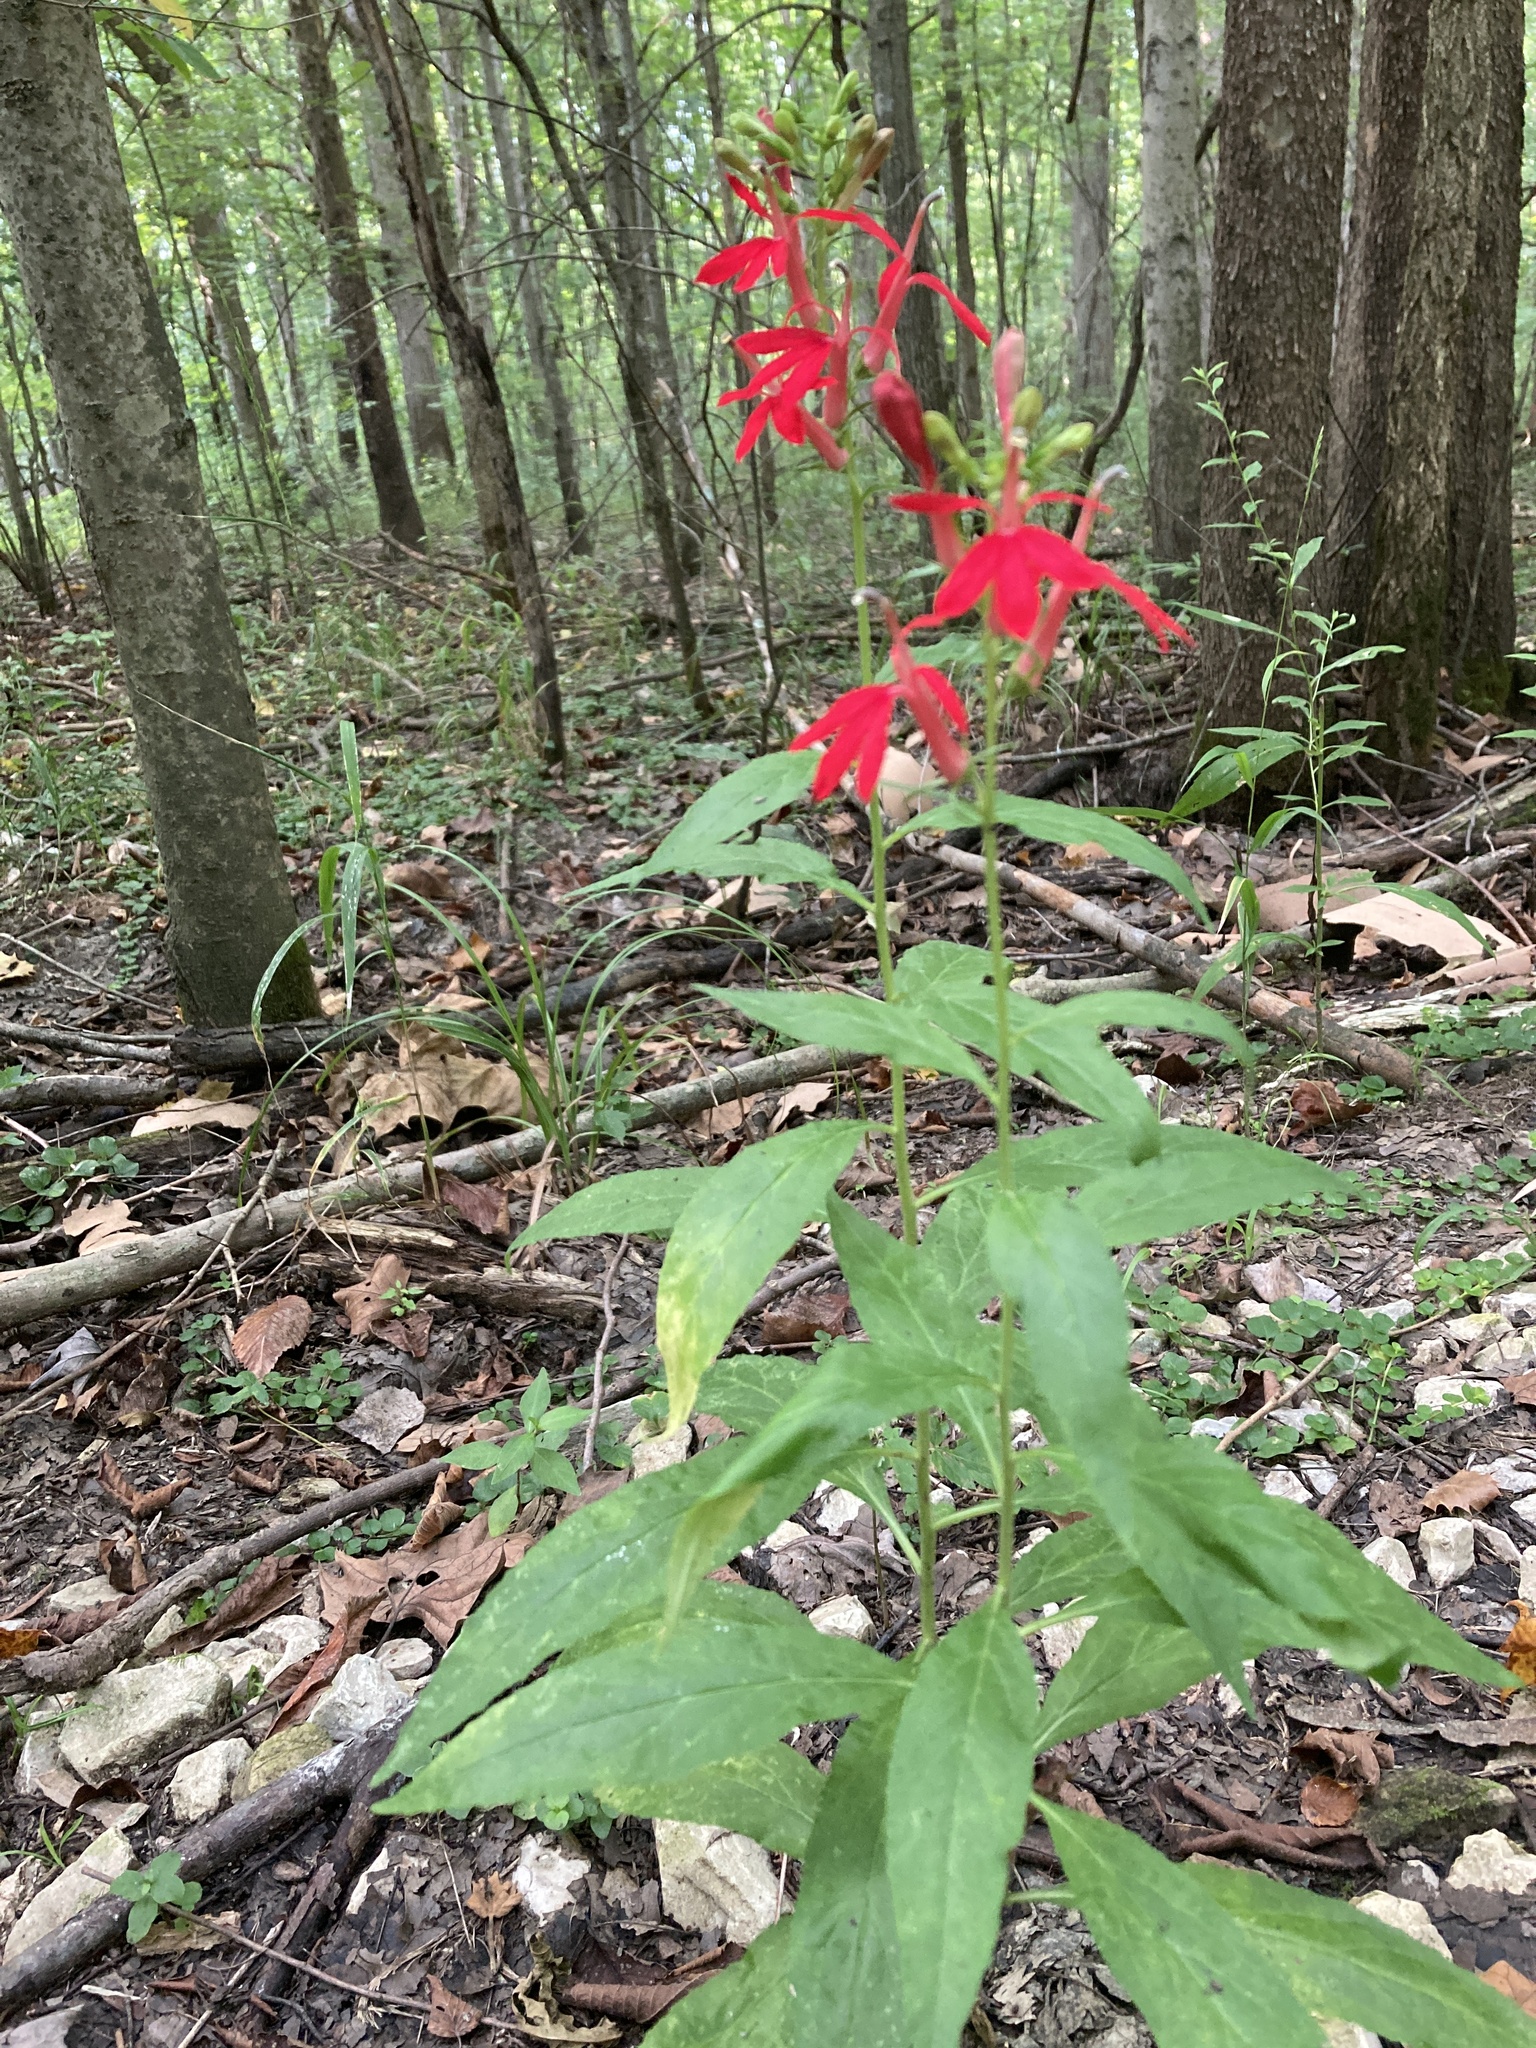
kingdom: Plantae
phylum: Tracheophyta
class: Magnoliopsida
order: Asterales
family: Campanulaceae
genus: Lobelia
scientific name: Lobelia cardinalis
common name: Cardinal flower
